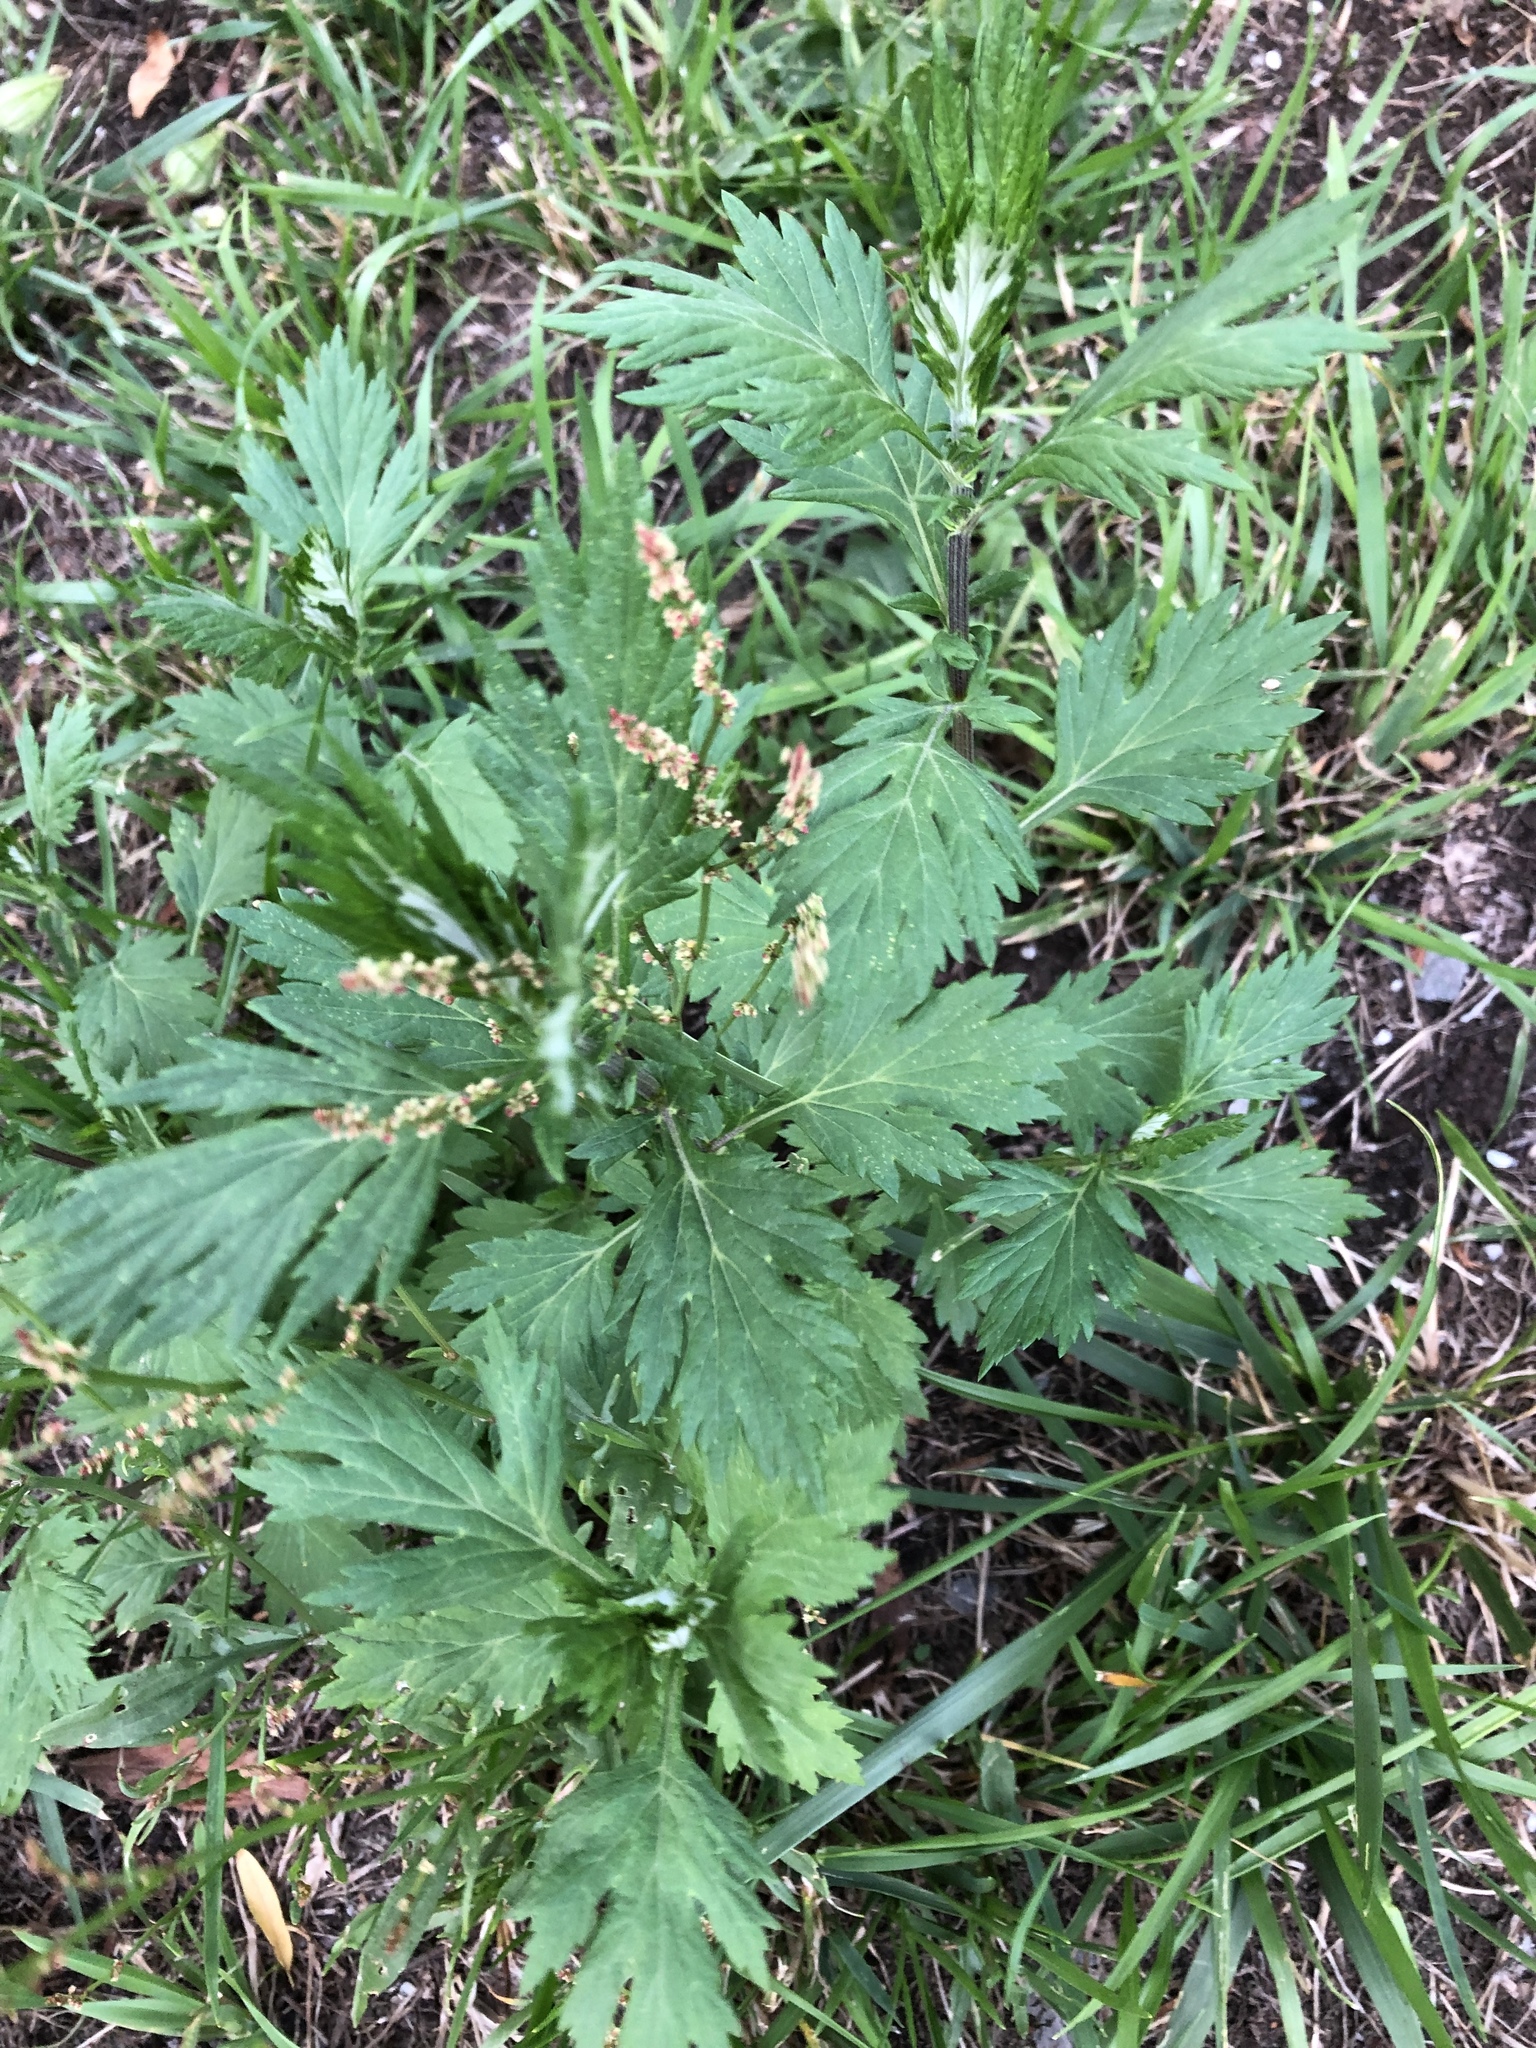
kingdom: Plantae
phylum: Tracheophyta
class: Magnoliopsida
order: Asterales
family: Asteraceae
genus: Artemisia
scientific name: Artemisia vulgaris
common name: Mugwort
